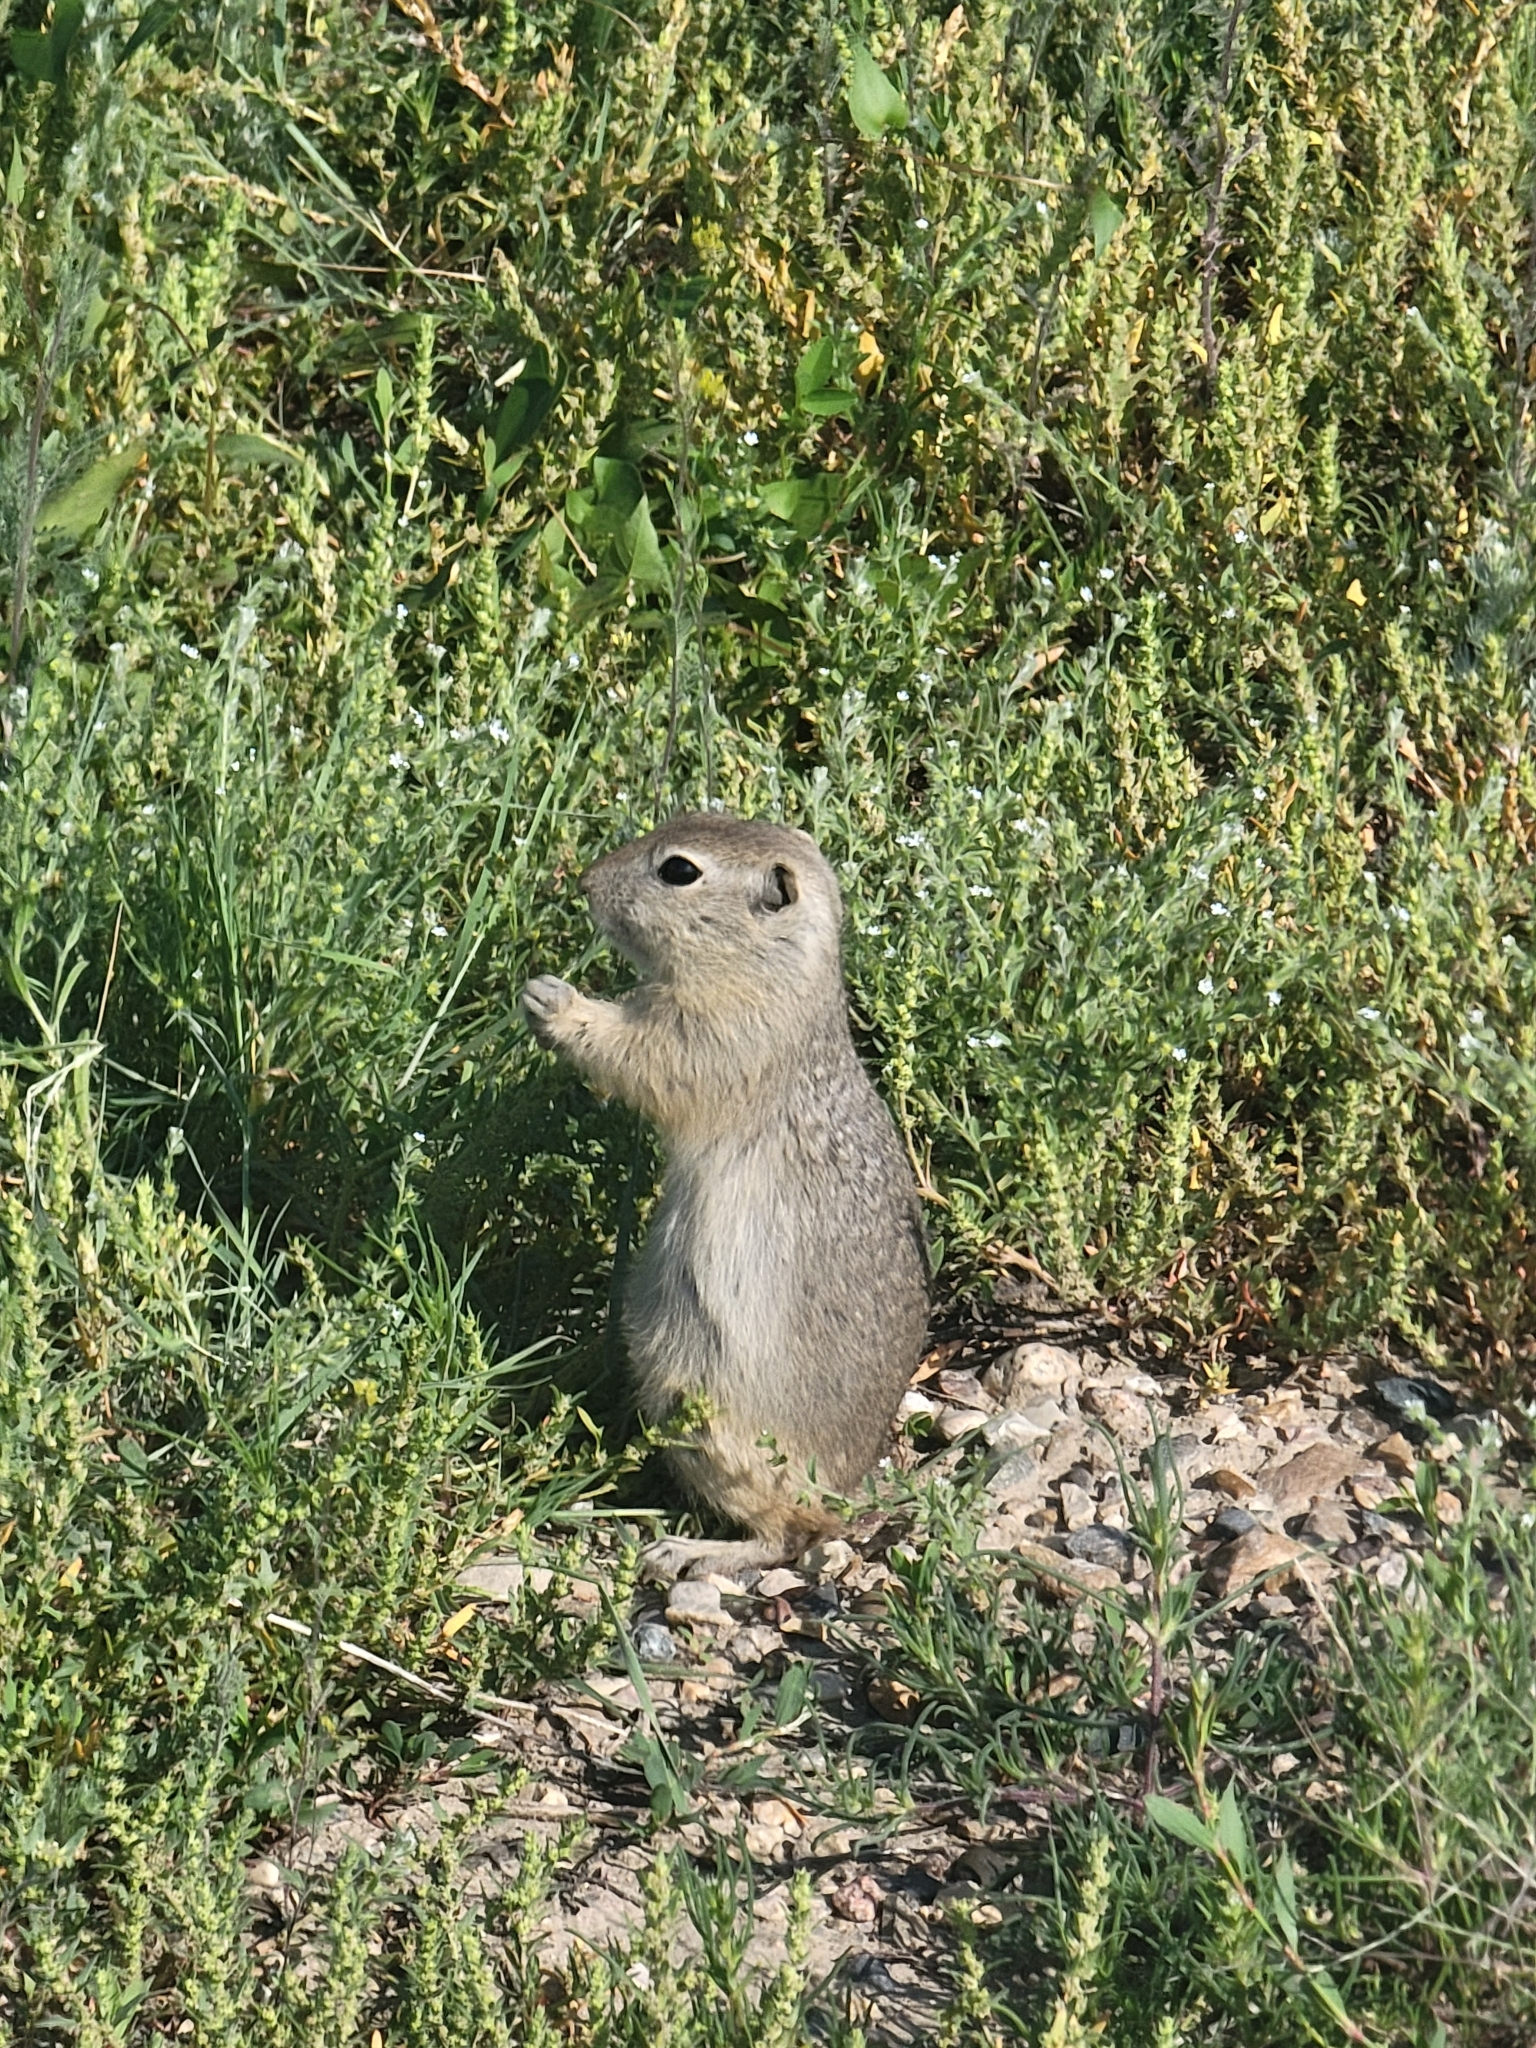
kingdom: Animalia
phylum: Chordata
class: Mammalia
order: Rodentia
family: Sciuridae
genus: Urocitellus
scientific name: Urocitellus richardsonii
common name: Richardson's ground squirrel
